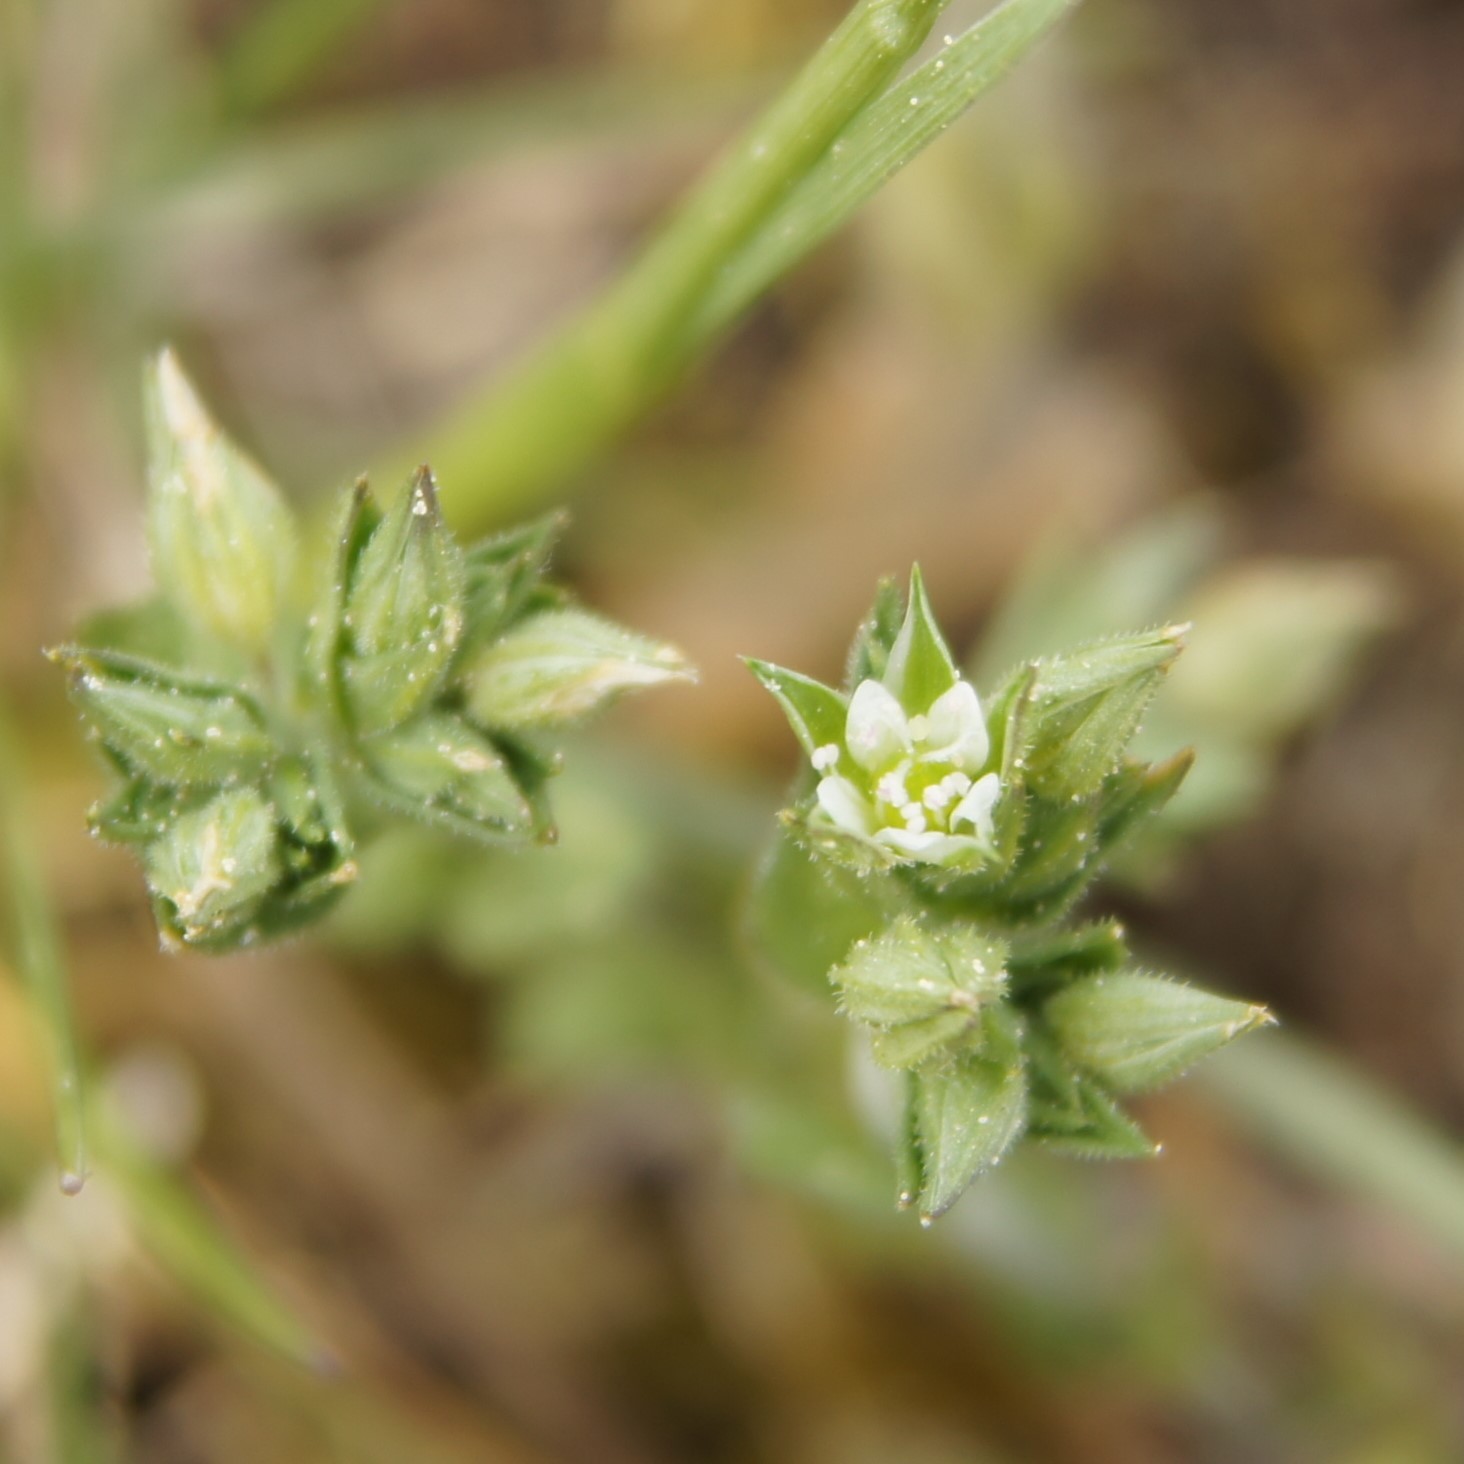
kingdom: Plantae
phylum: Tracheophyta
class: Magnoliopsida
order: Caryophyllales
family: Caryophyllaceae
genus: Arenaria
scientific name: Arenaria serpyllifolia
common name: Thyme-leaved sandwort
